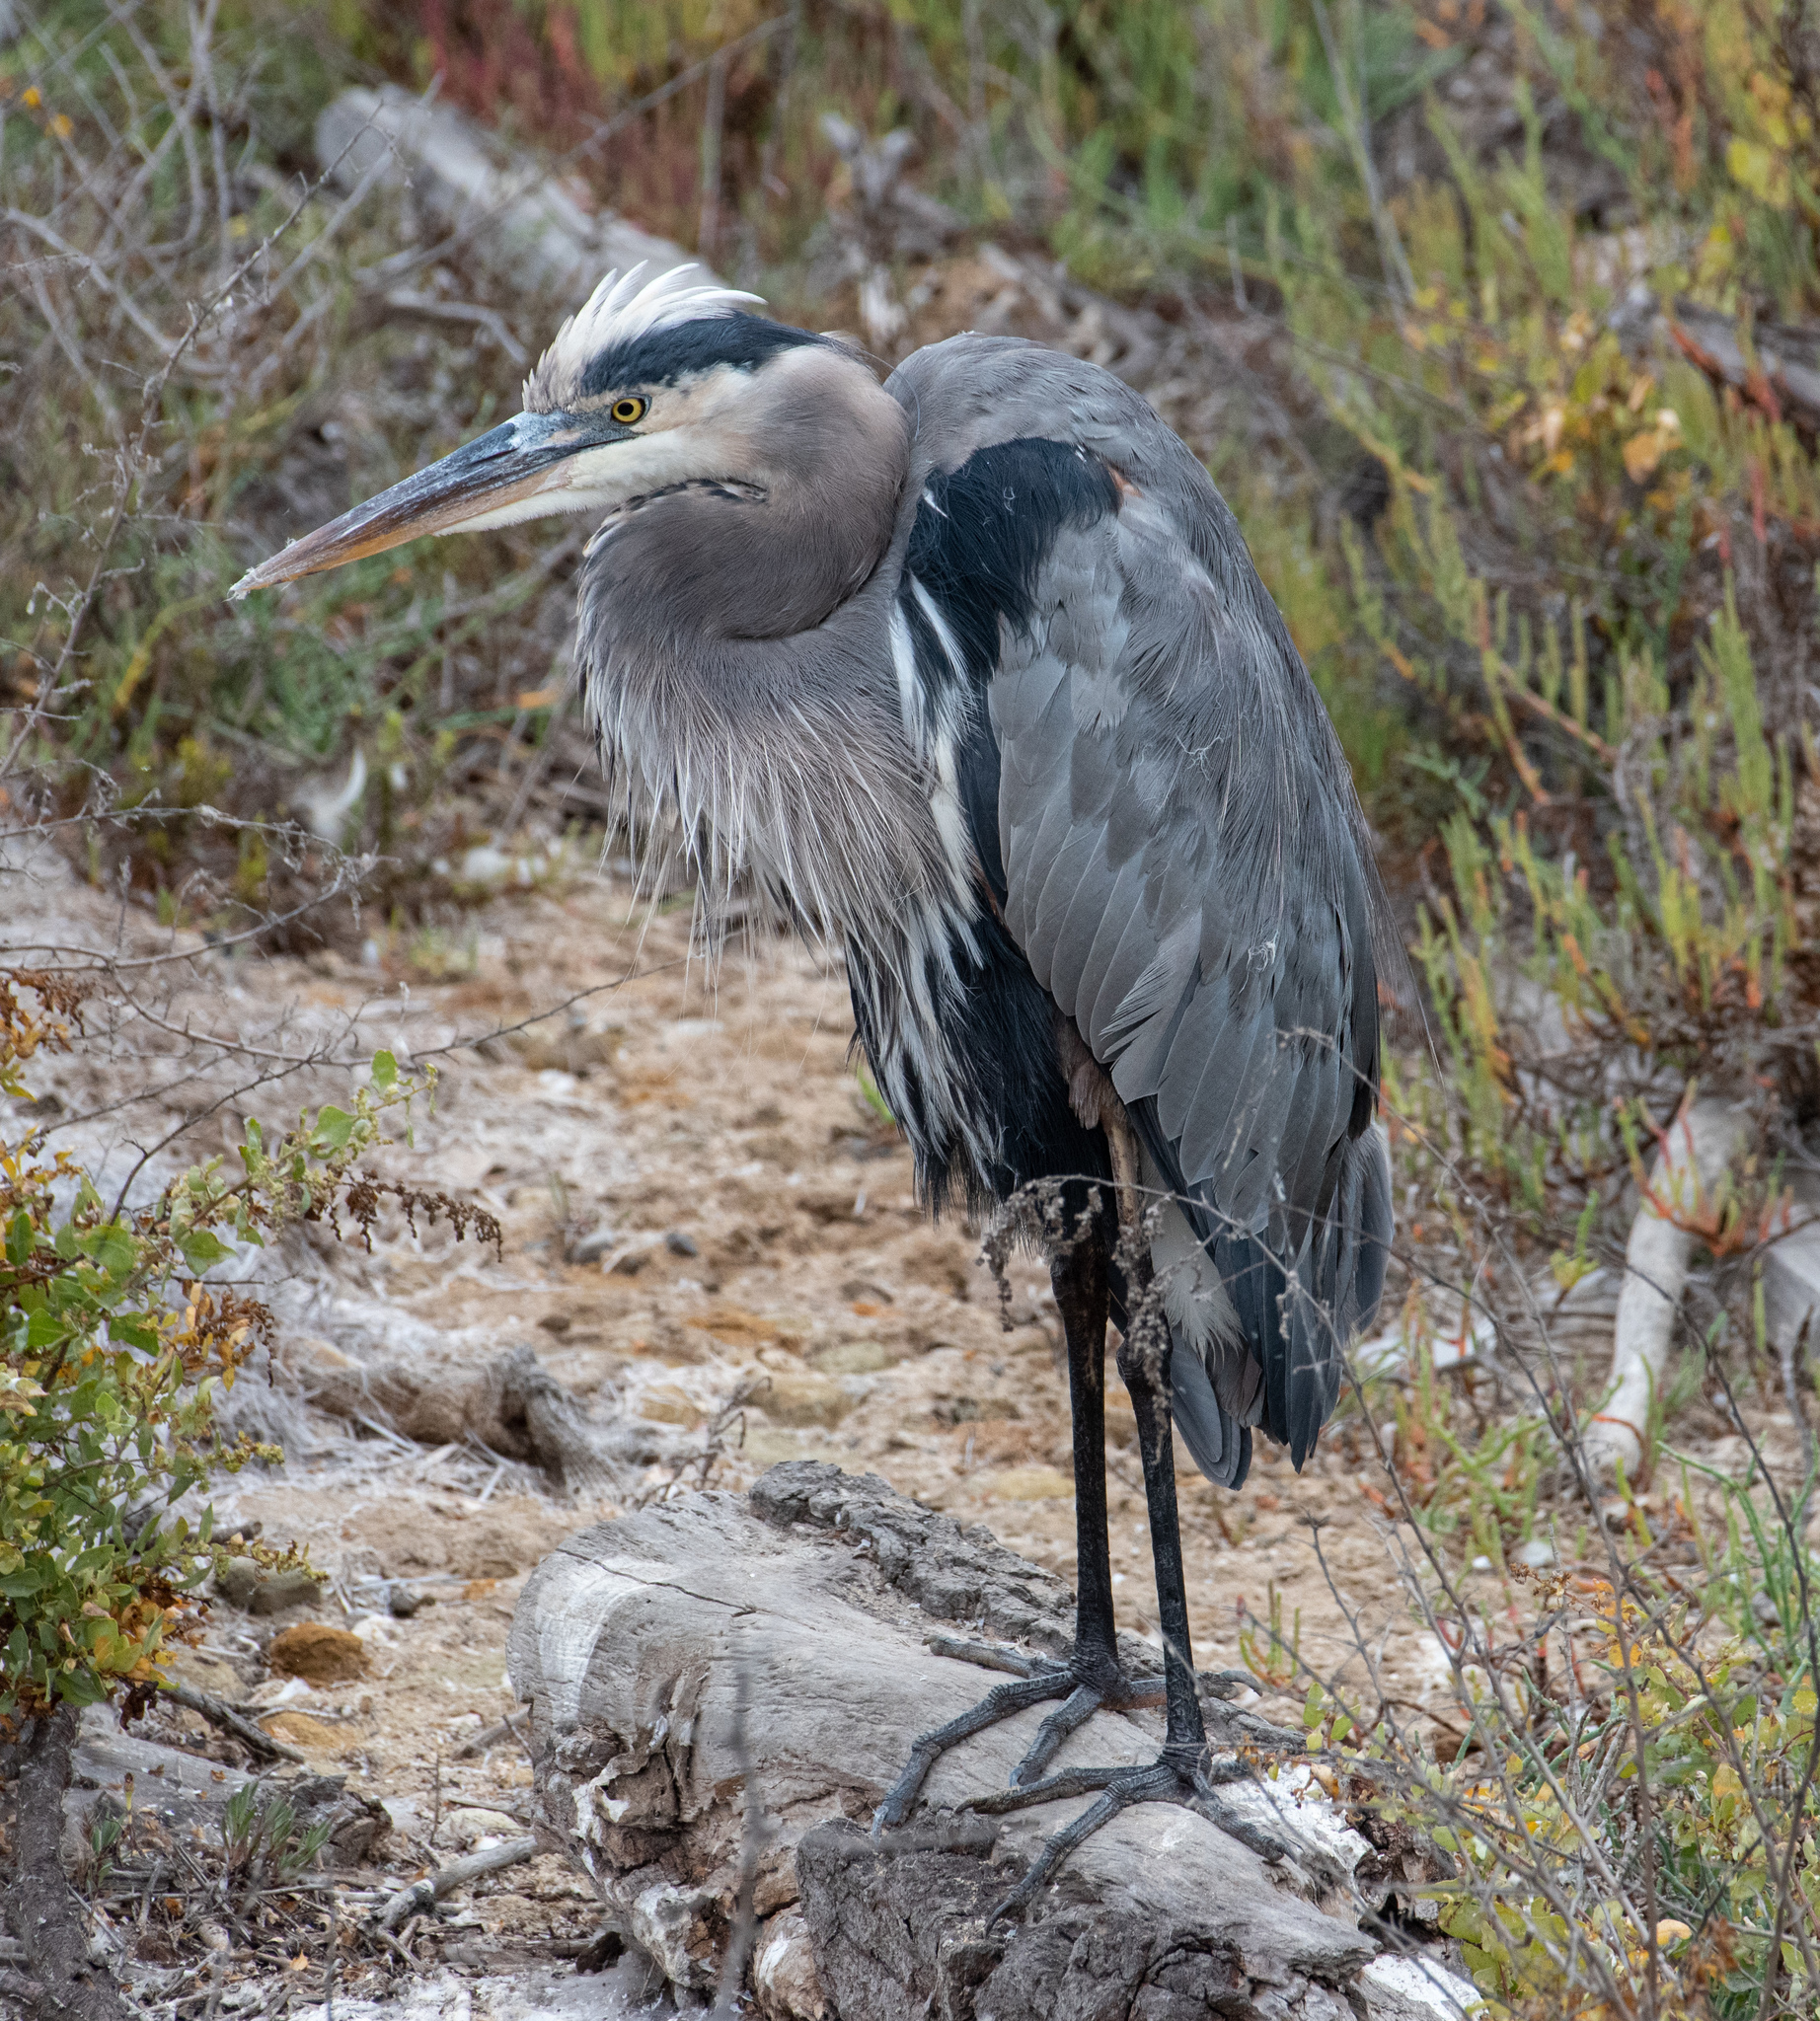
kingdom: Animalia
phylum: Chordata
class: Aves
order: Pelecaniformes
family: Ardeidae
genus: Ardea
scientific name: Ardea herodias
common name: Great blue heron
